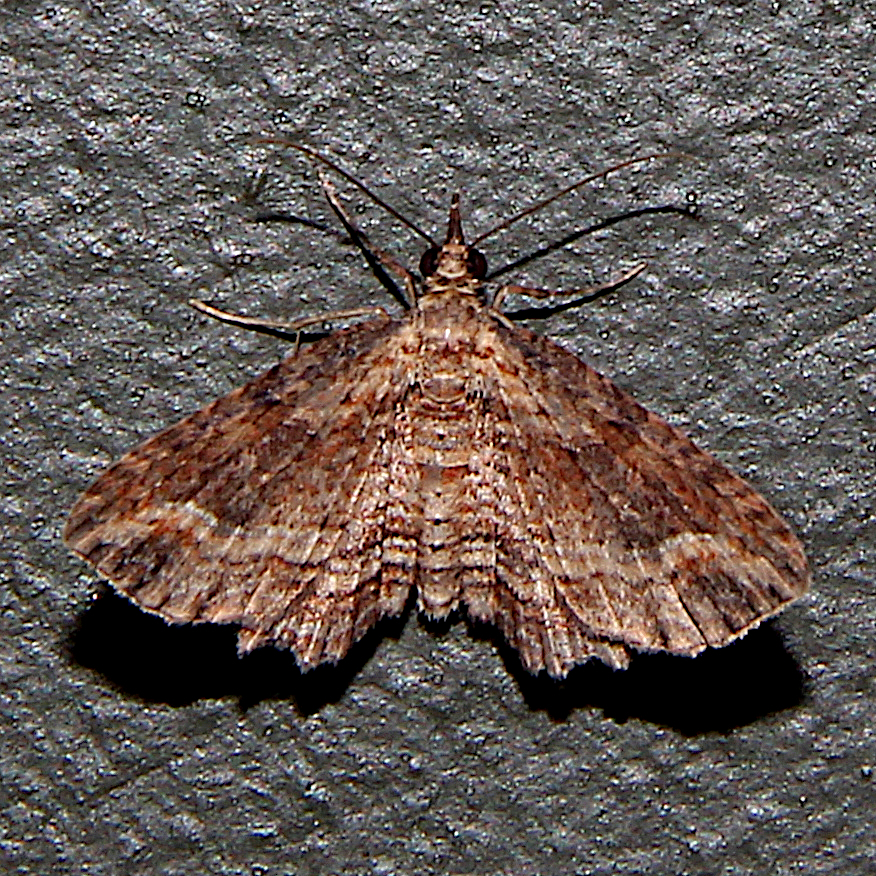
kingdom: Animalia
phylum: Arthropoda
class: Insecta
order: Lepidoptera
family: Geometridae
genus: Chloroclystis
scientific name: Chloroclystis filata
